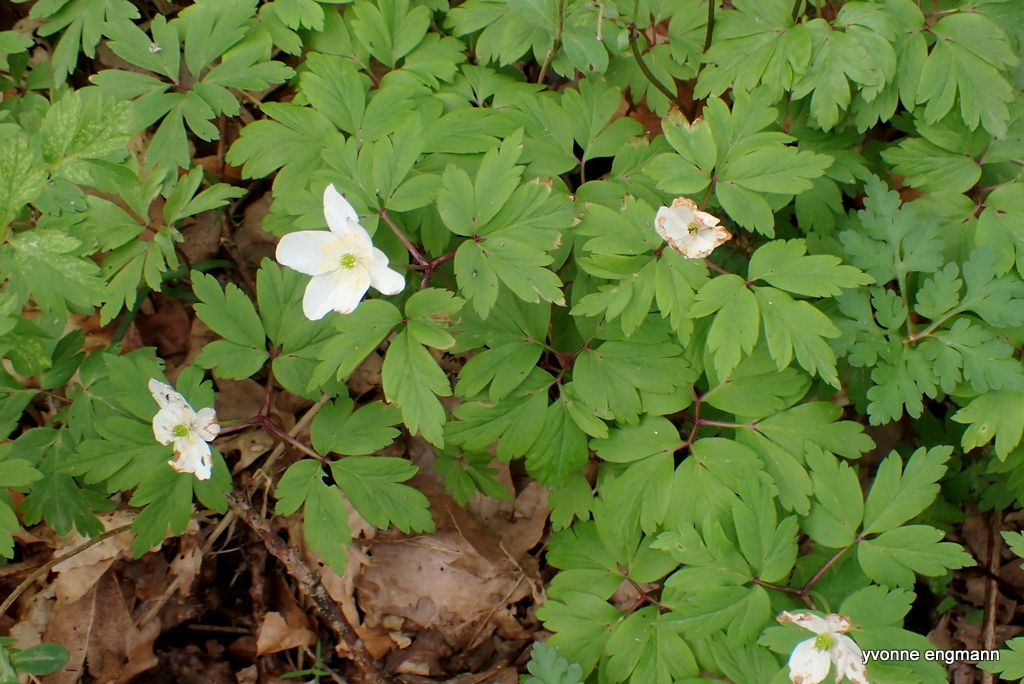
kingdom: Plantae
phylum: Tracheophyta
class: Magnoliopsida
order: Ranunculales
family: Ranunculaceae
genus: Anemone
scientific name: Anemone nemorosa
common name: Wood anemone
